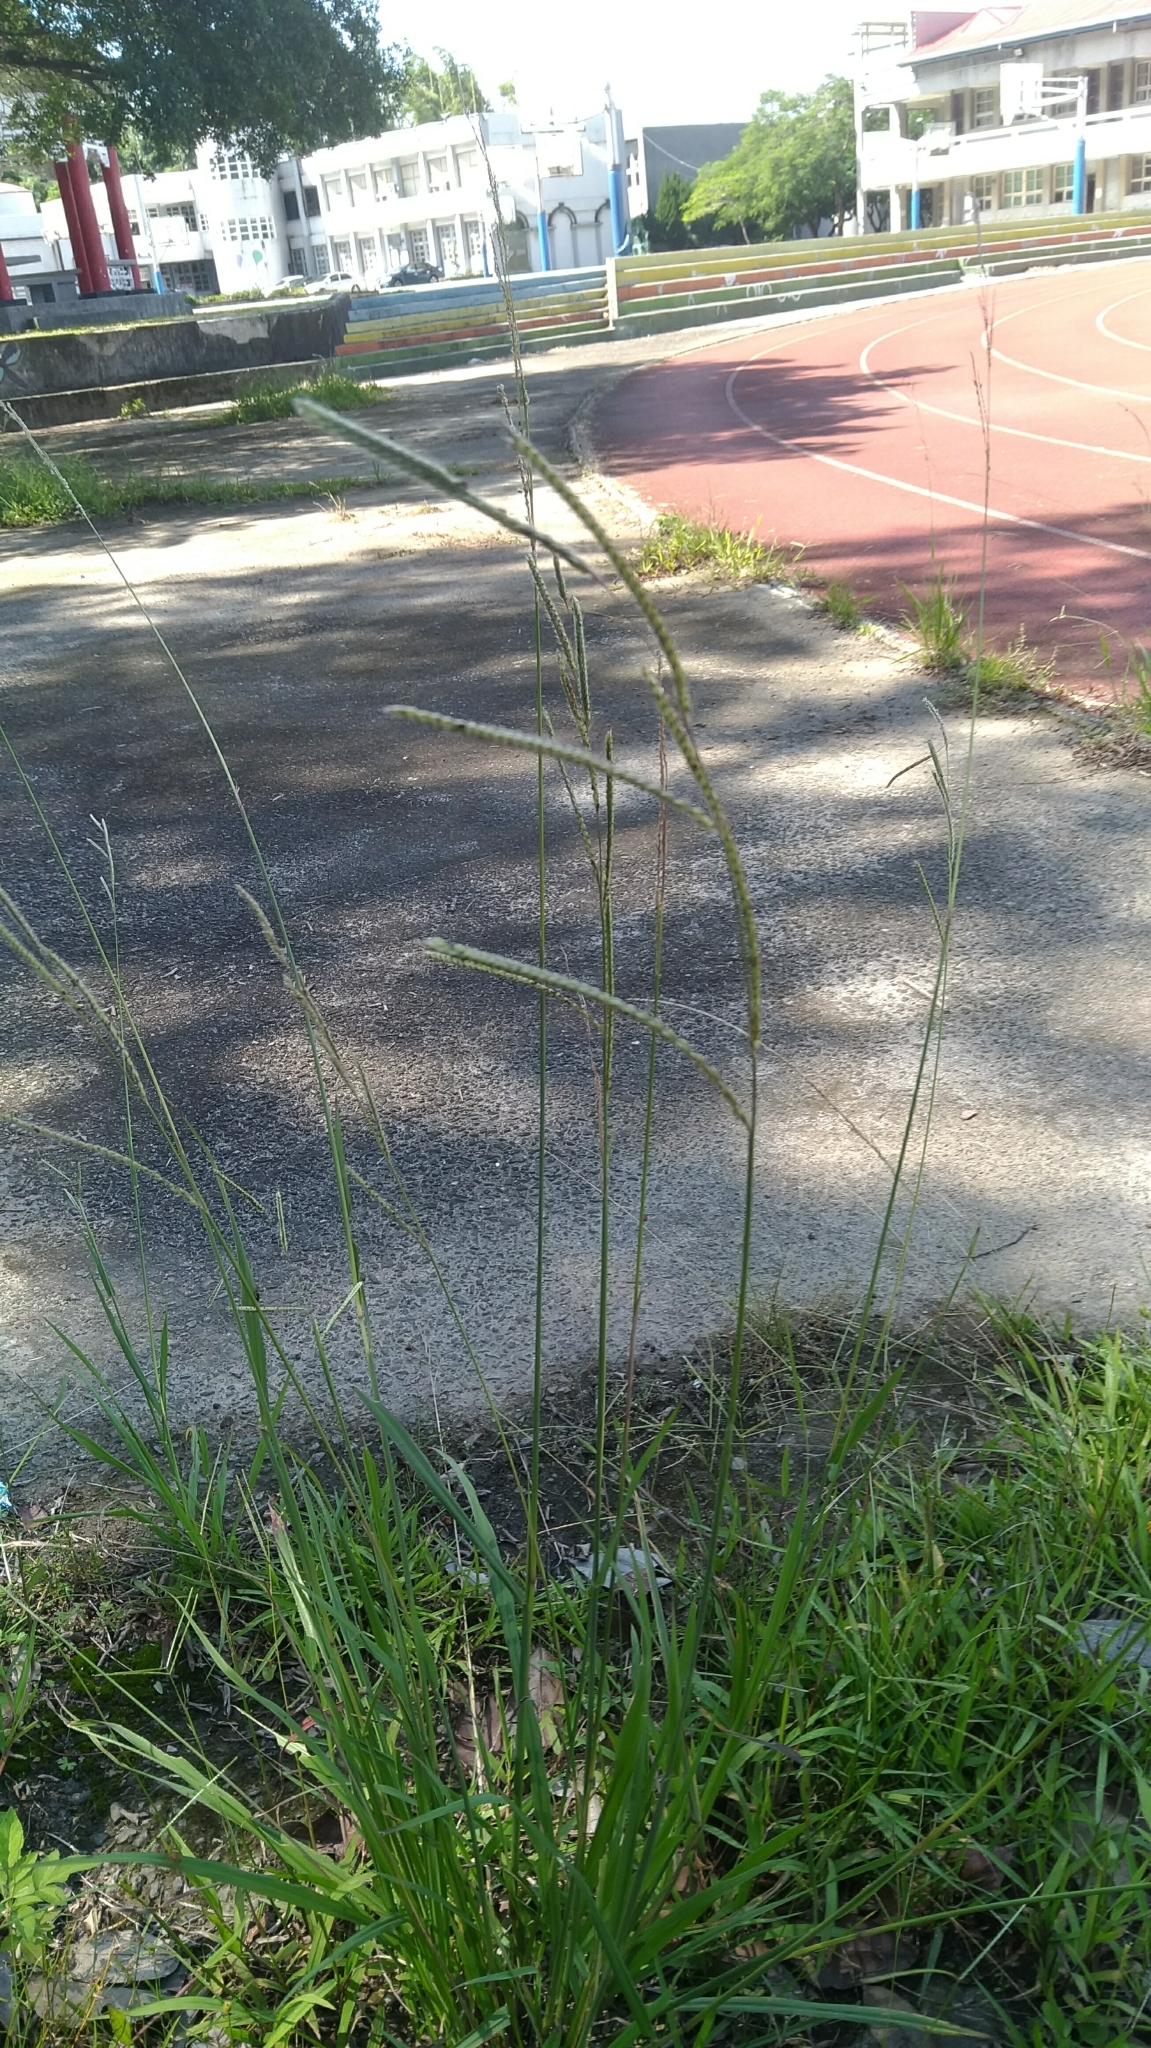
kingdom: Plantae
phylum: Tracheophyta
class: Liliopsida
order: Poales
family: Poaceae
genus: Paspalum
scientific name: Paspalum urvillei
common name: Vasey's grass
